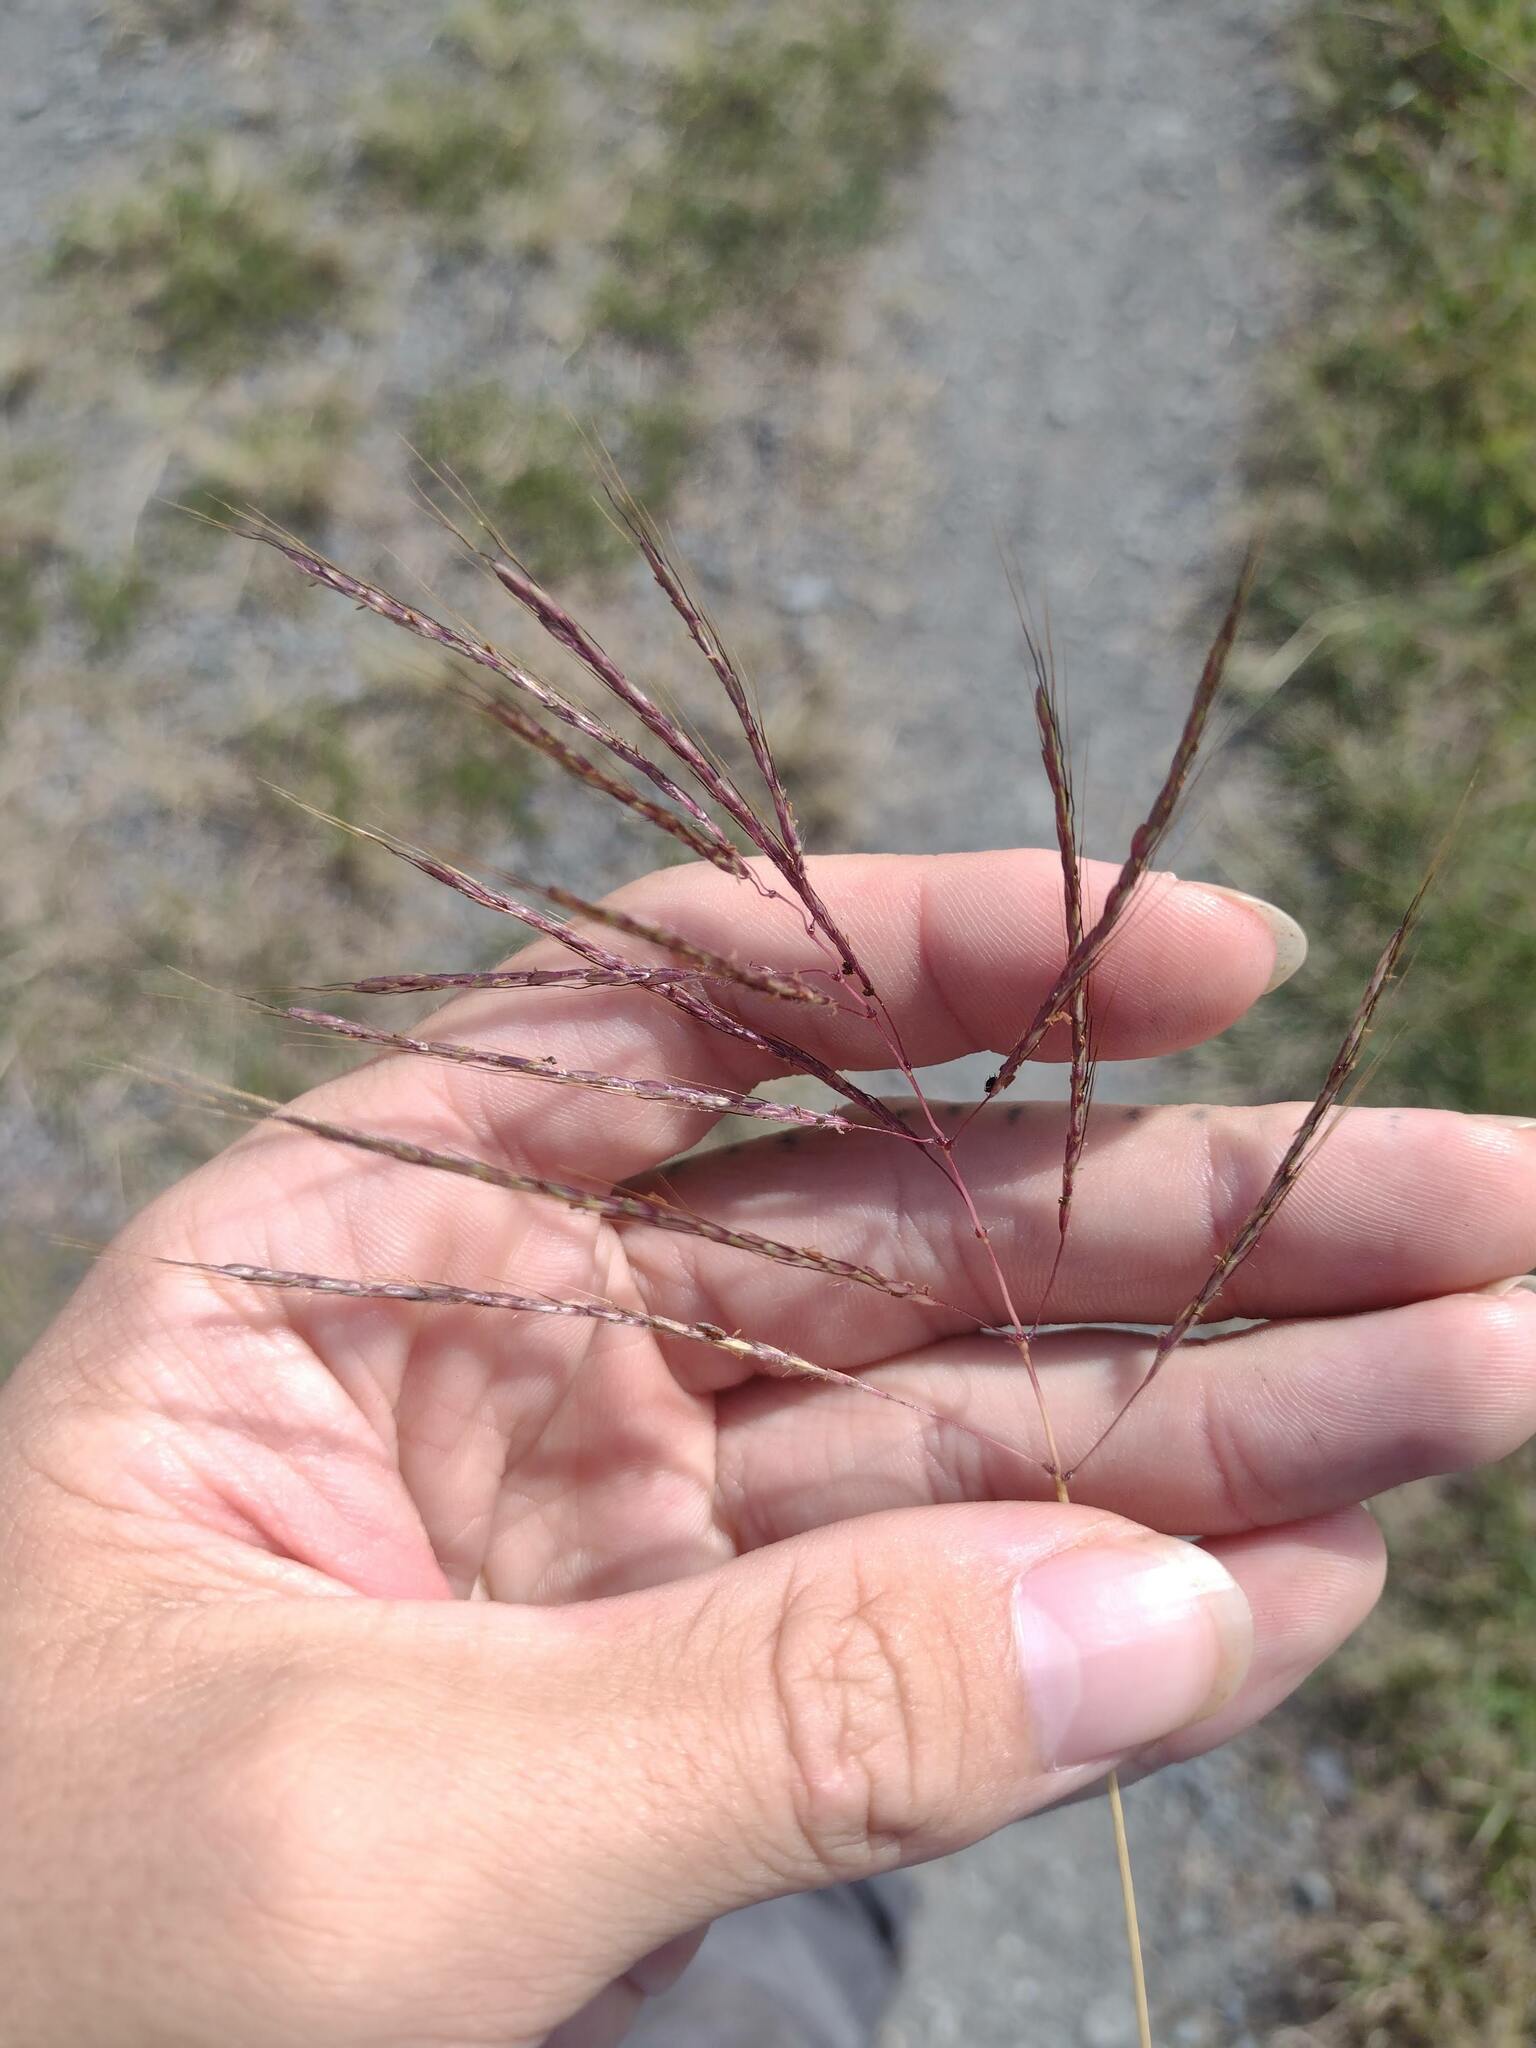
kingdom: Plantae
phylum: Tracheophyta
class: Liliopsida
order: Poales
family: Poaceae
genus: Dichanthium
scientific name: Dichanthium annulatum
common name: Kleberg's bluestem
